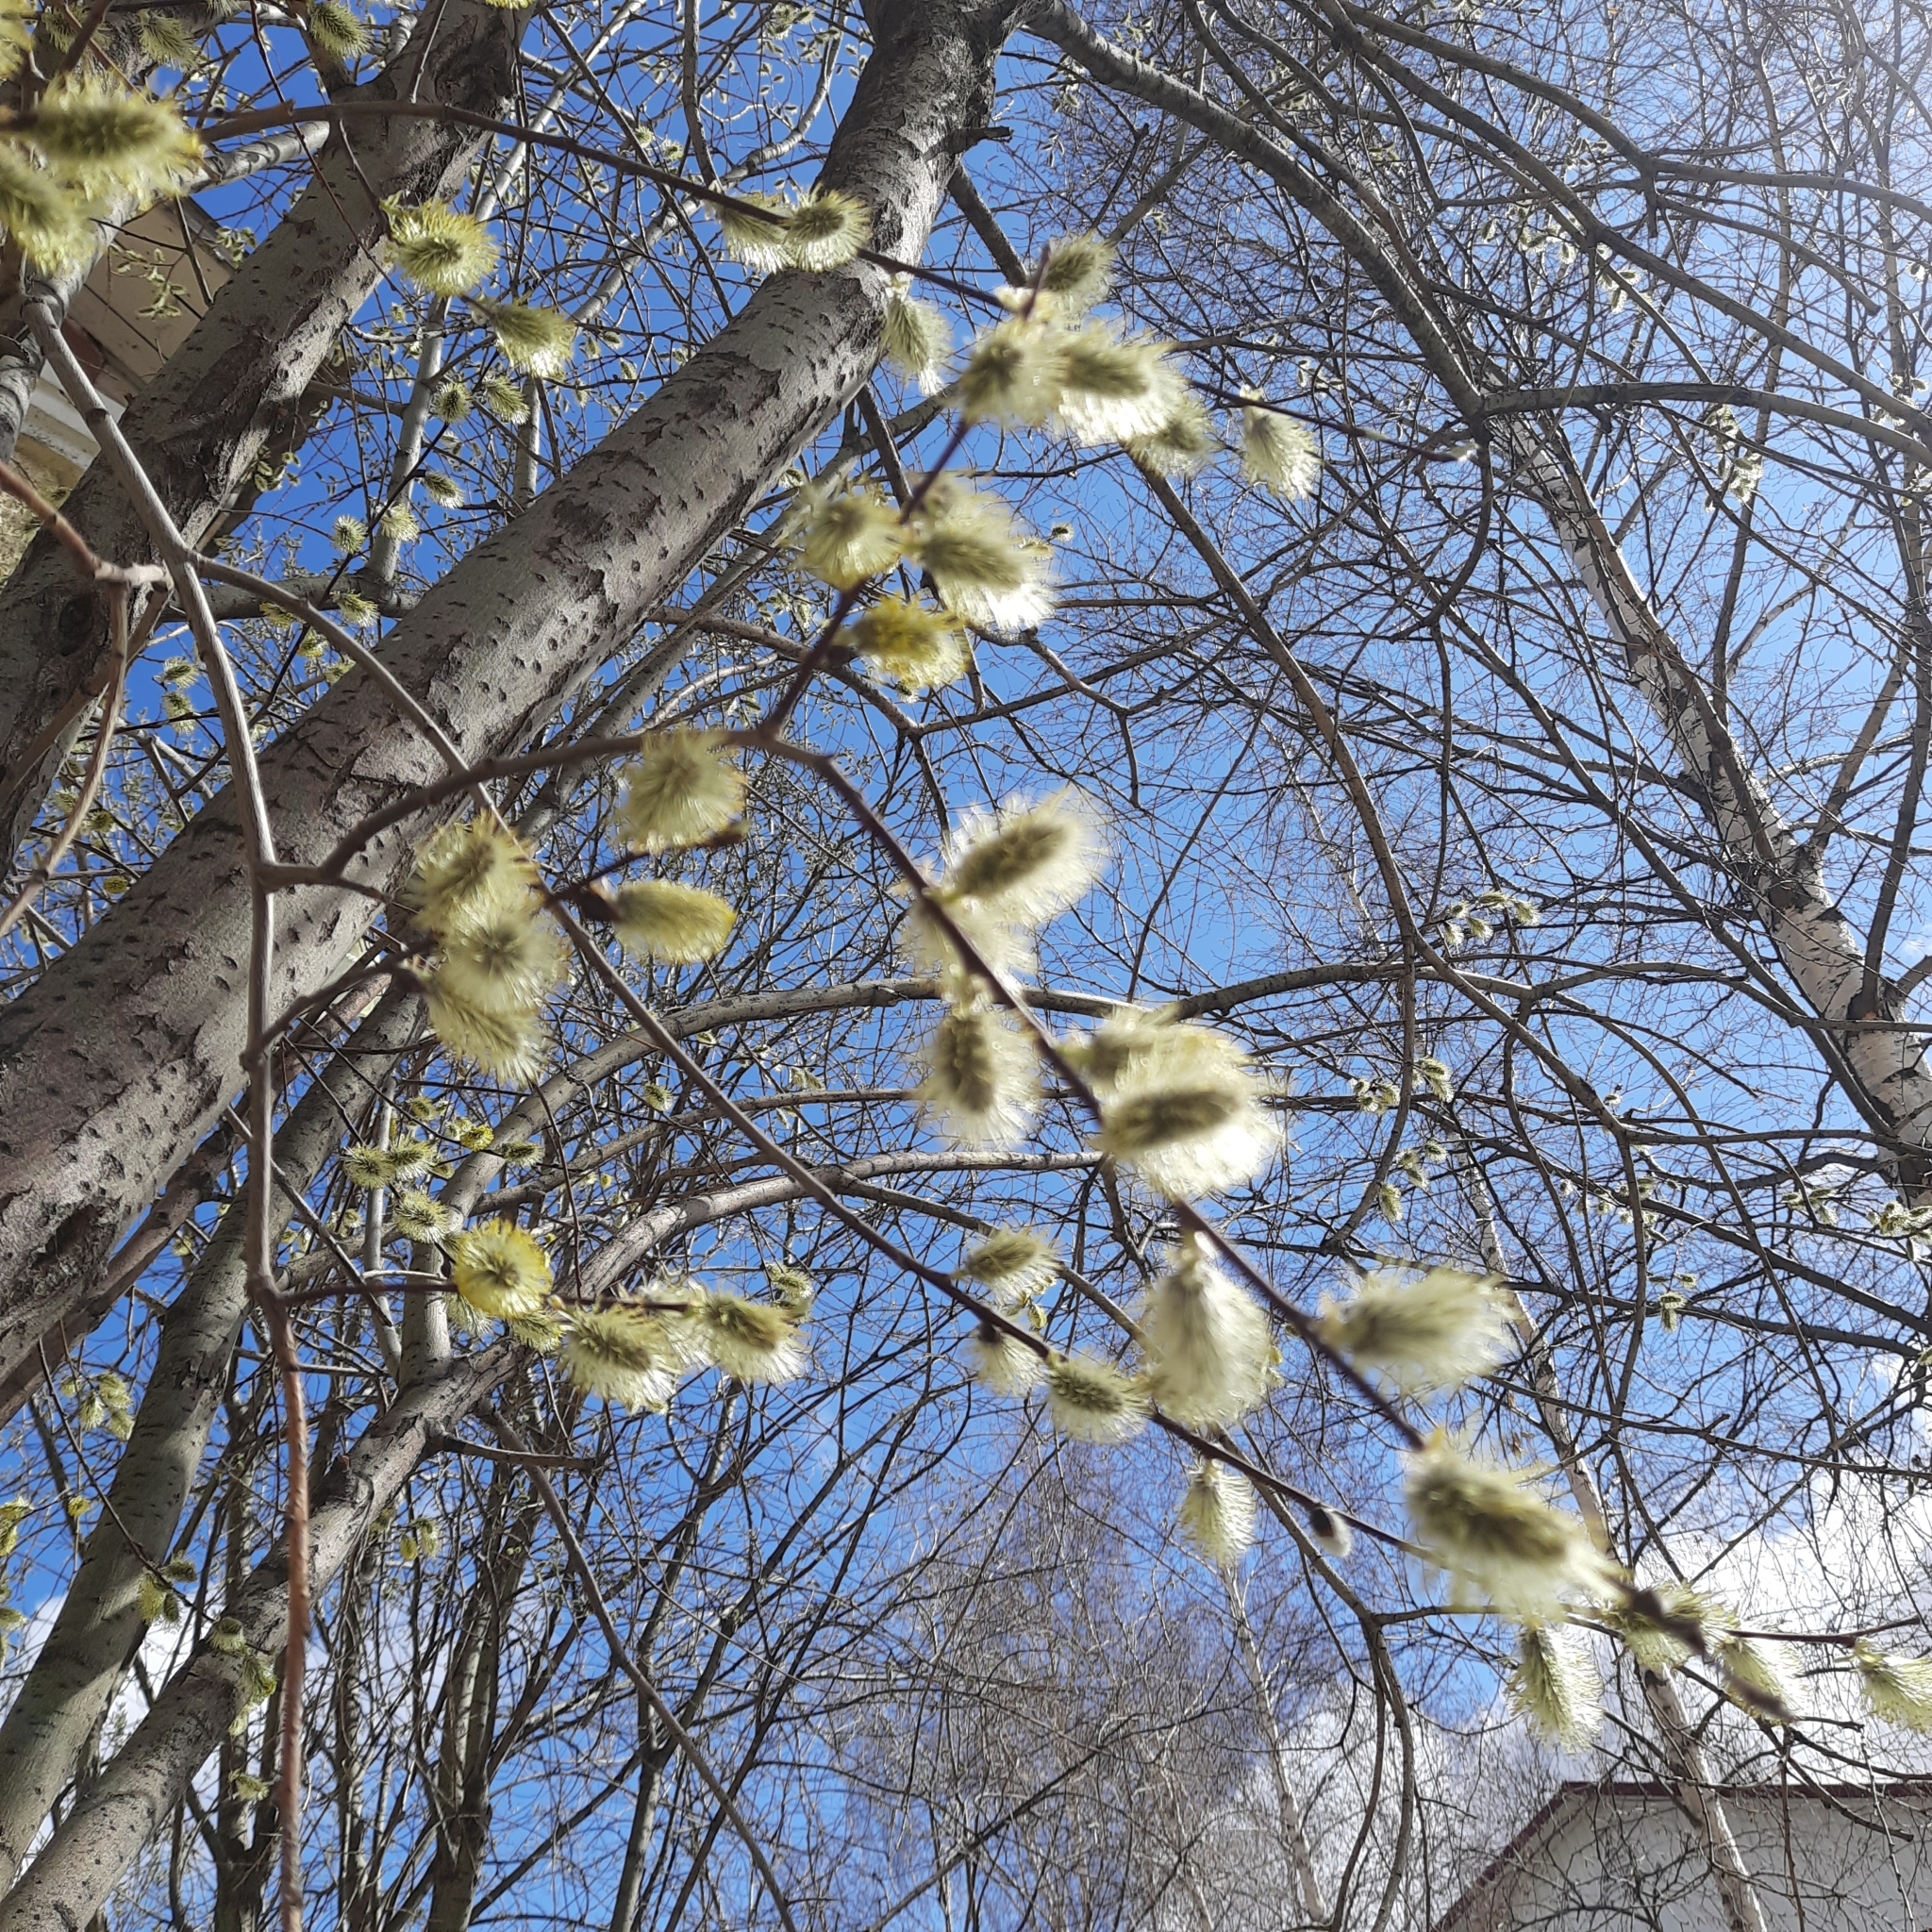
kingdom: Plantae
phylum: Tracheophyta
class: Magnoliopsida
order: Malpighiales
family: Salicaceae
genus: Salix
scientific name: Salix caprea
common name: Goat willow
